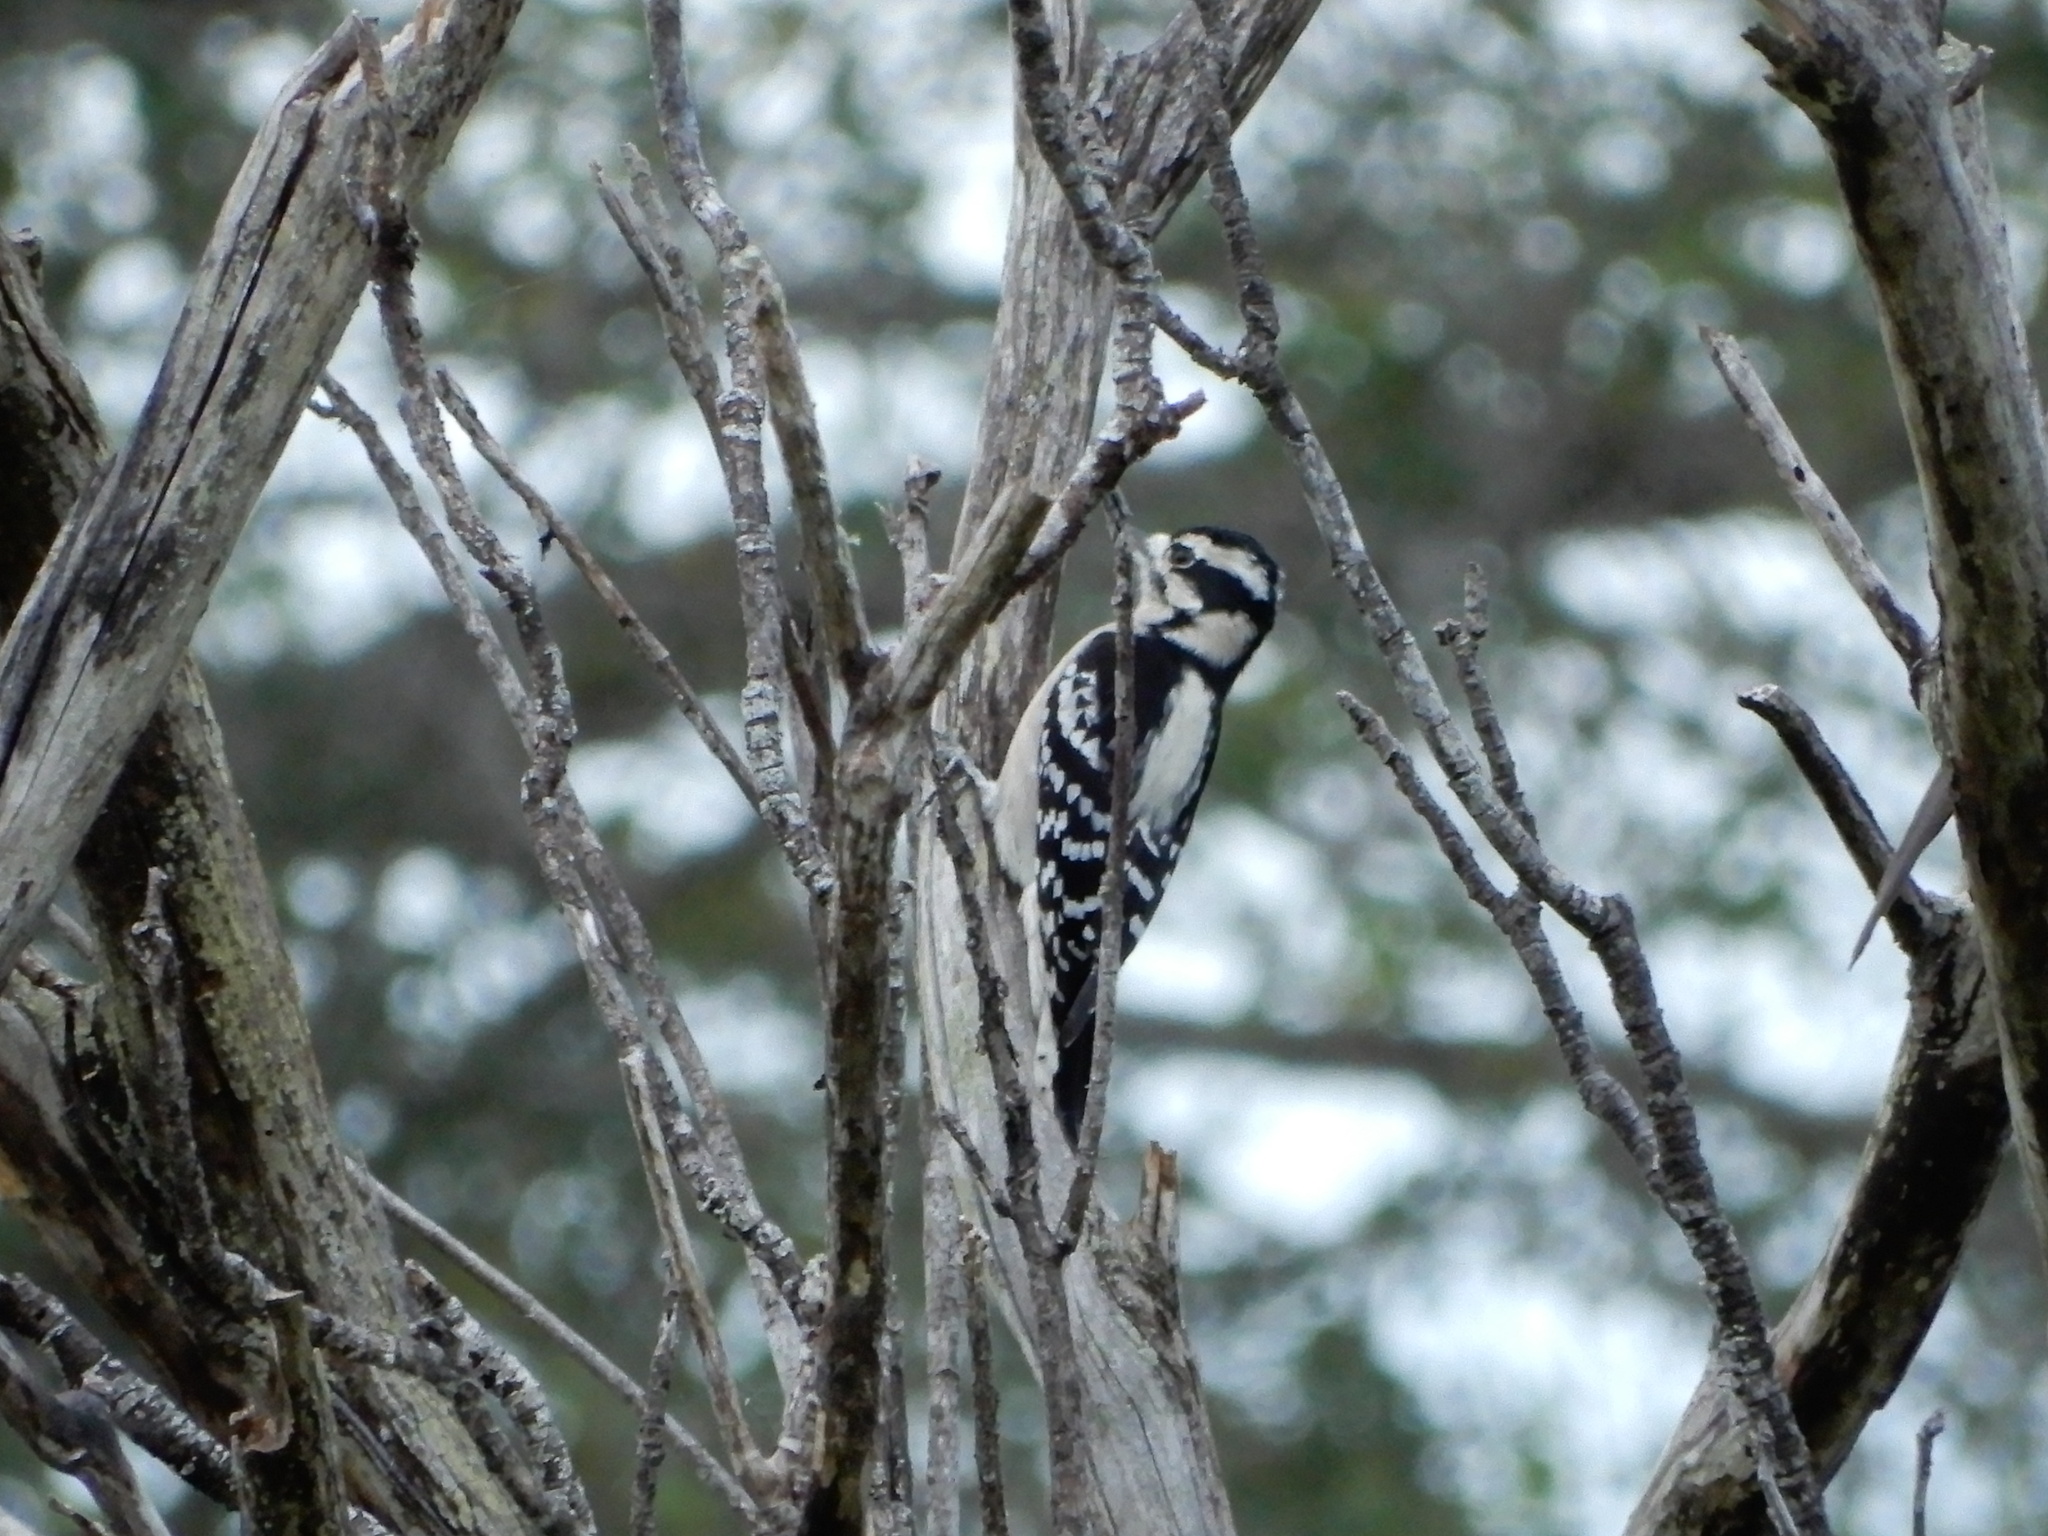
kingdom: Animalia
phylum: Chordata
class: Aves
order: Piciformes
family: Picidae
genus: Dryobates
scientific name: Dryobates pubescens
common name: Downy woodpecker
